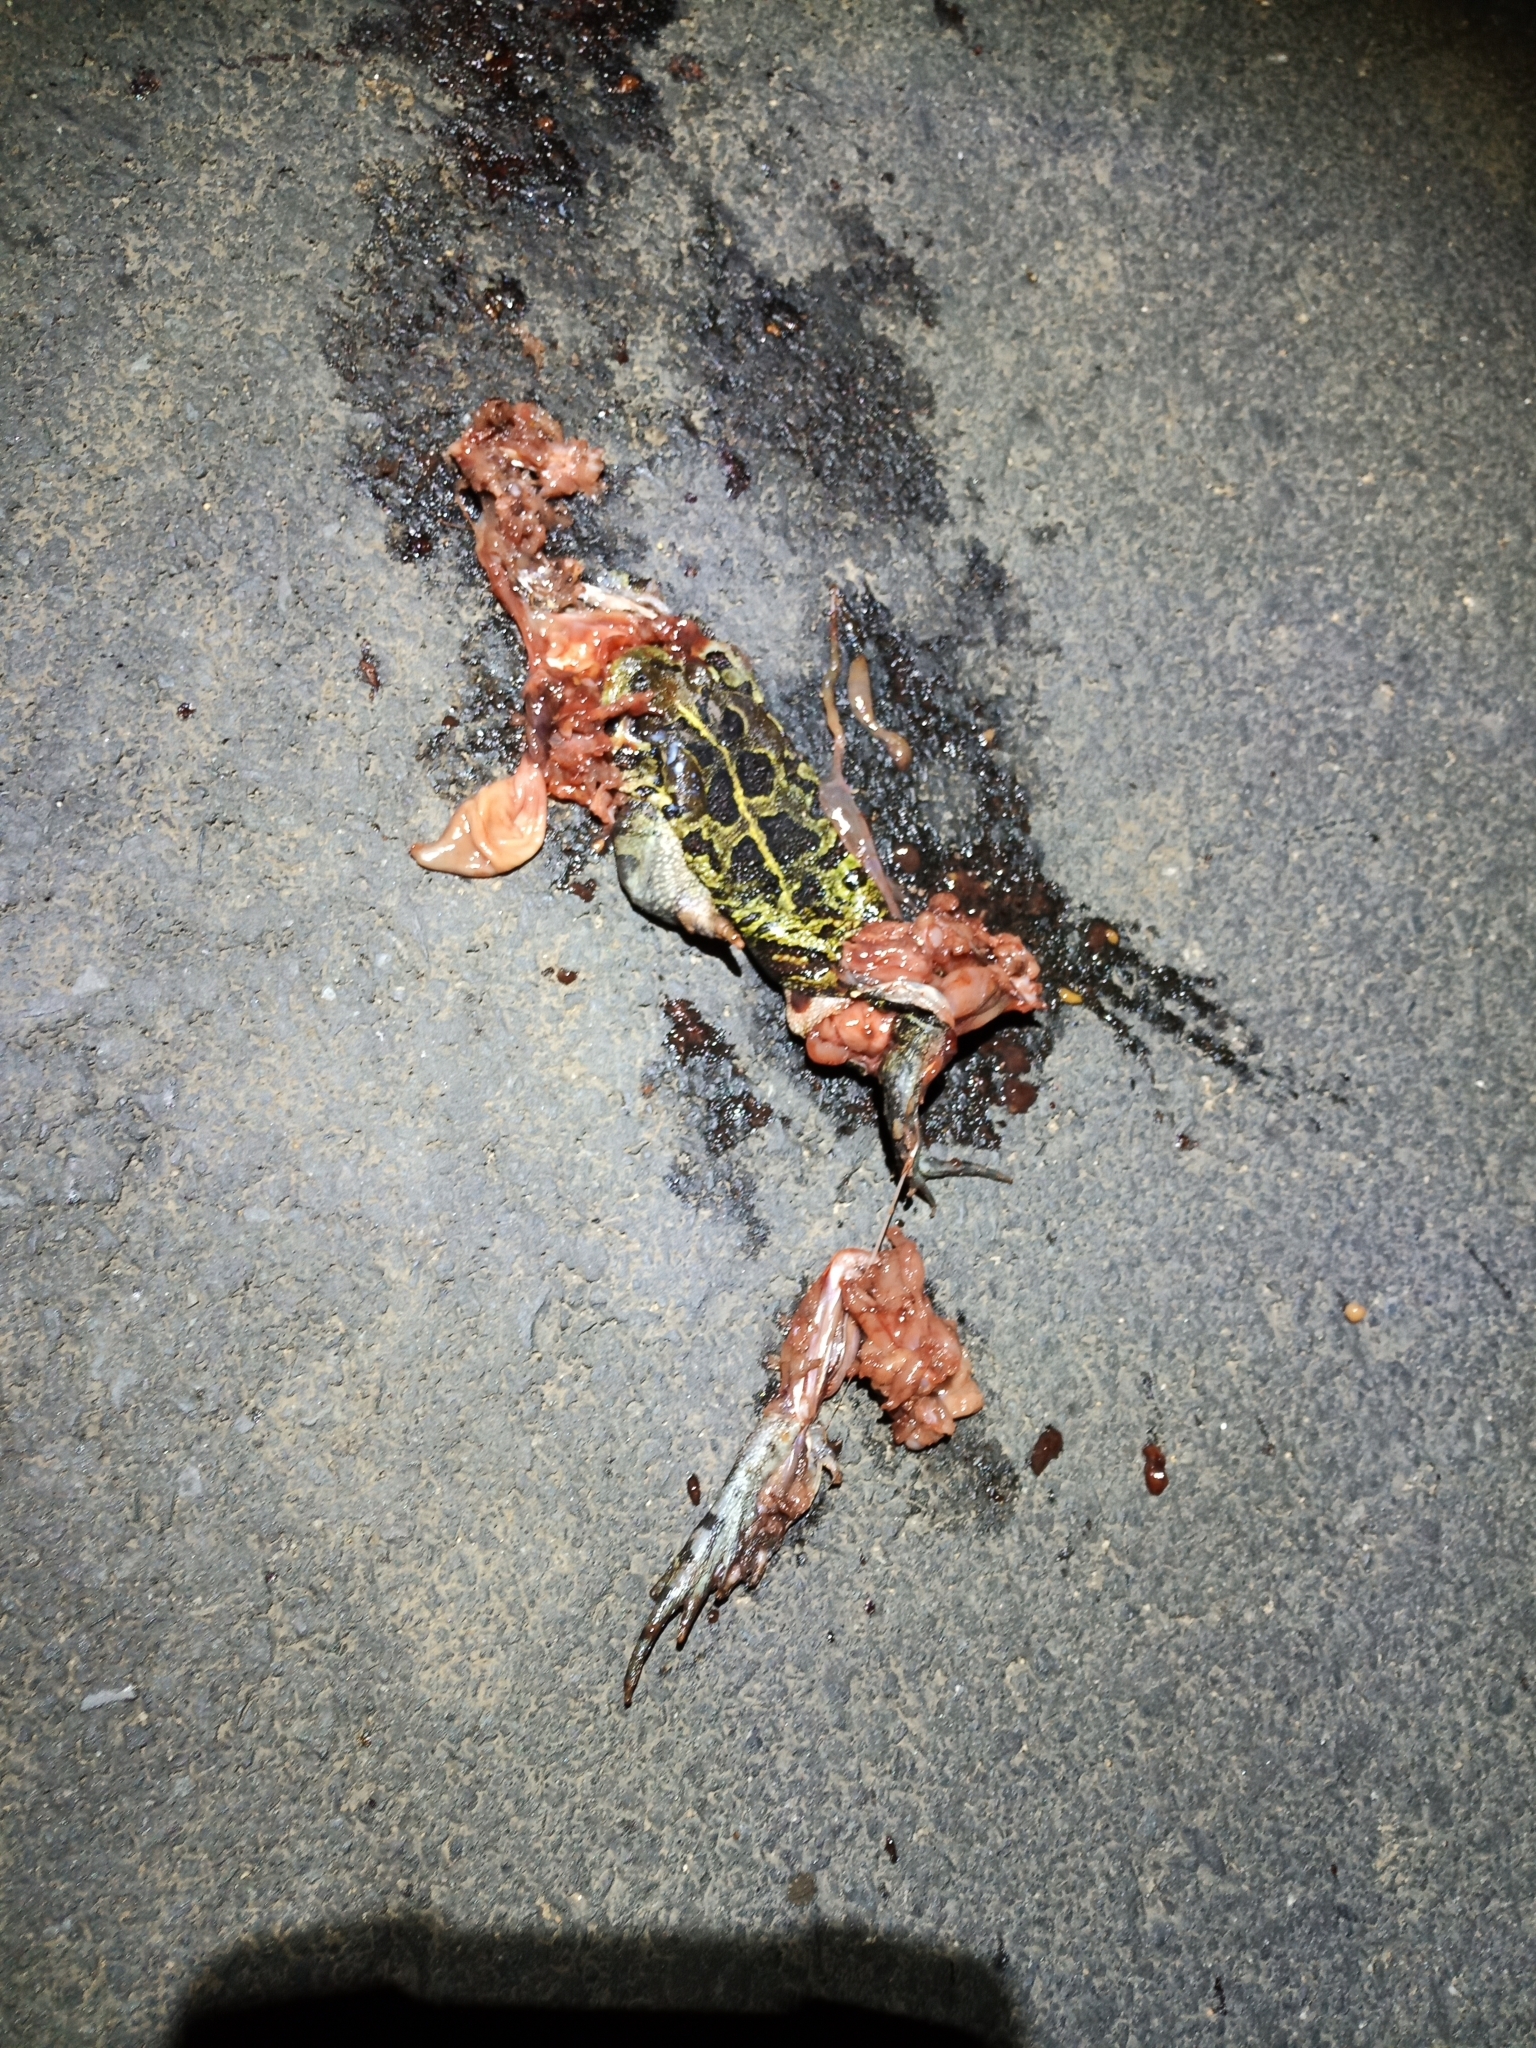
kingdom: Animalia
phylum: Chordata
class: Amphibia
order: Anura
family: Bufonidae
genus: Sclerophrys
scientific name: Sclerophrys pantherina
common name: Panther toad
